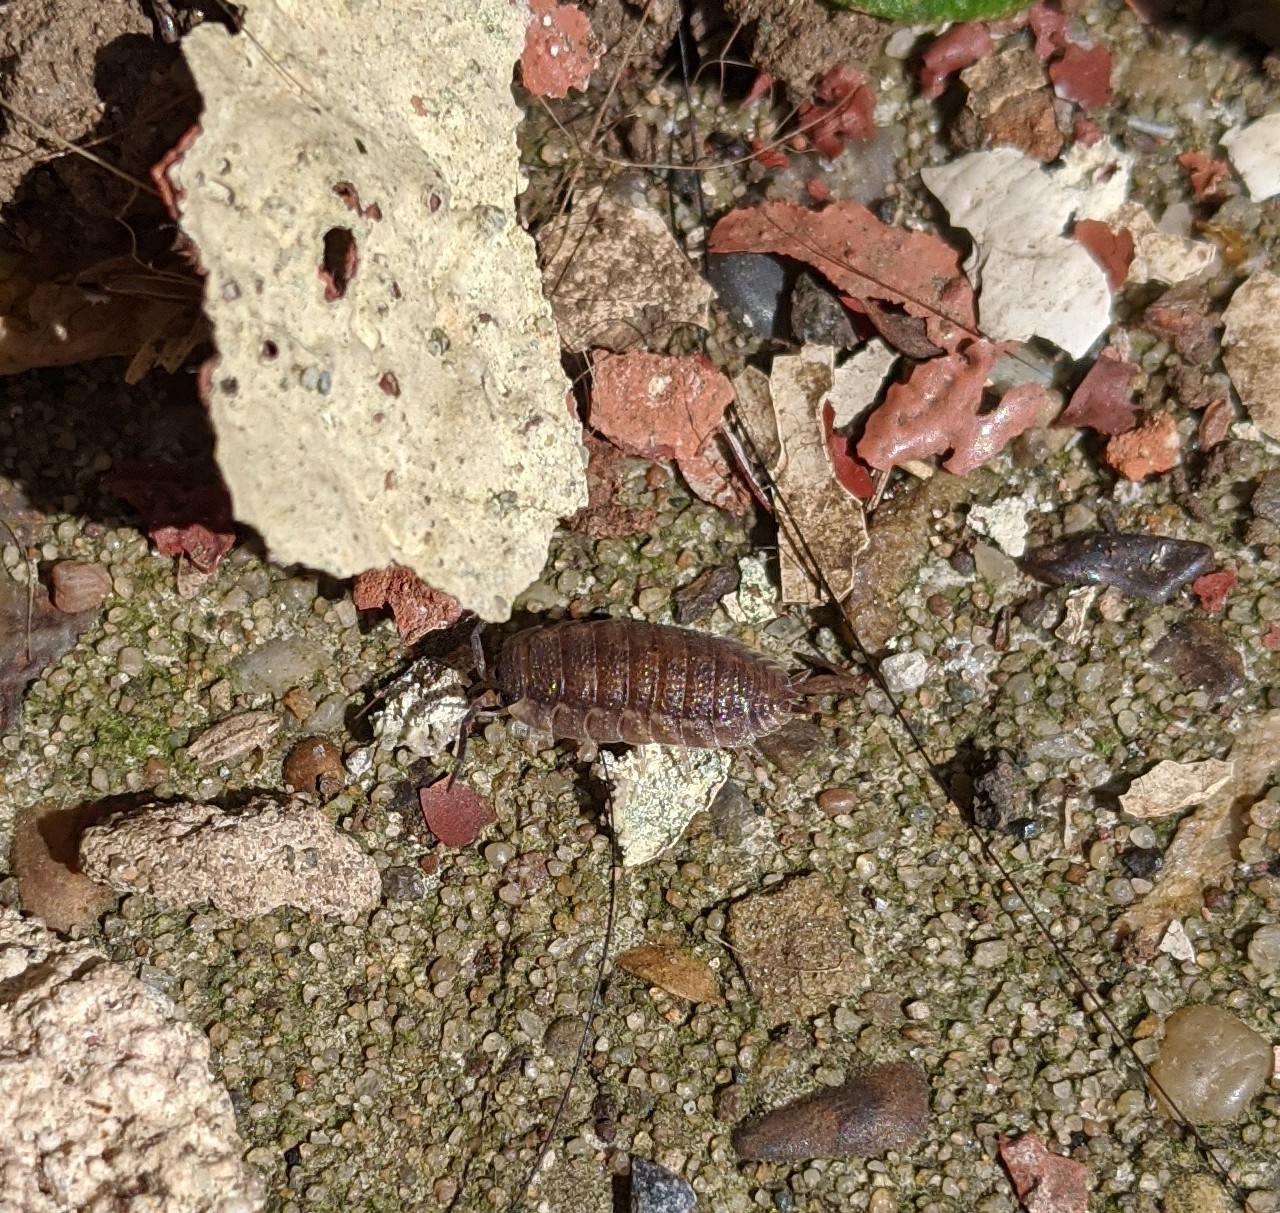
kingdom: Animalia
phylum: Arthropoda
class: Malacostraca
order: Isopoda
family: Porcellionidae
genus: Porcellio
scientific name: Porcellio scaber
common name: Common rough woodlouse
